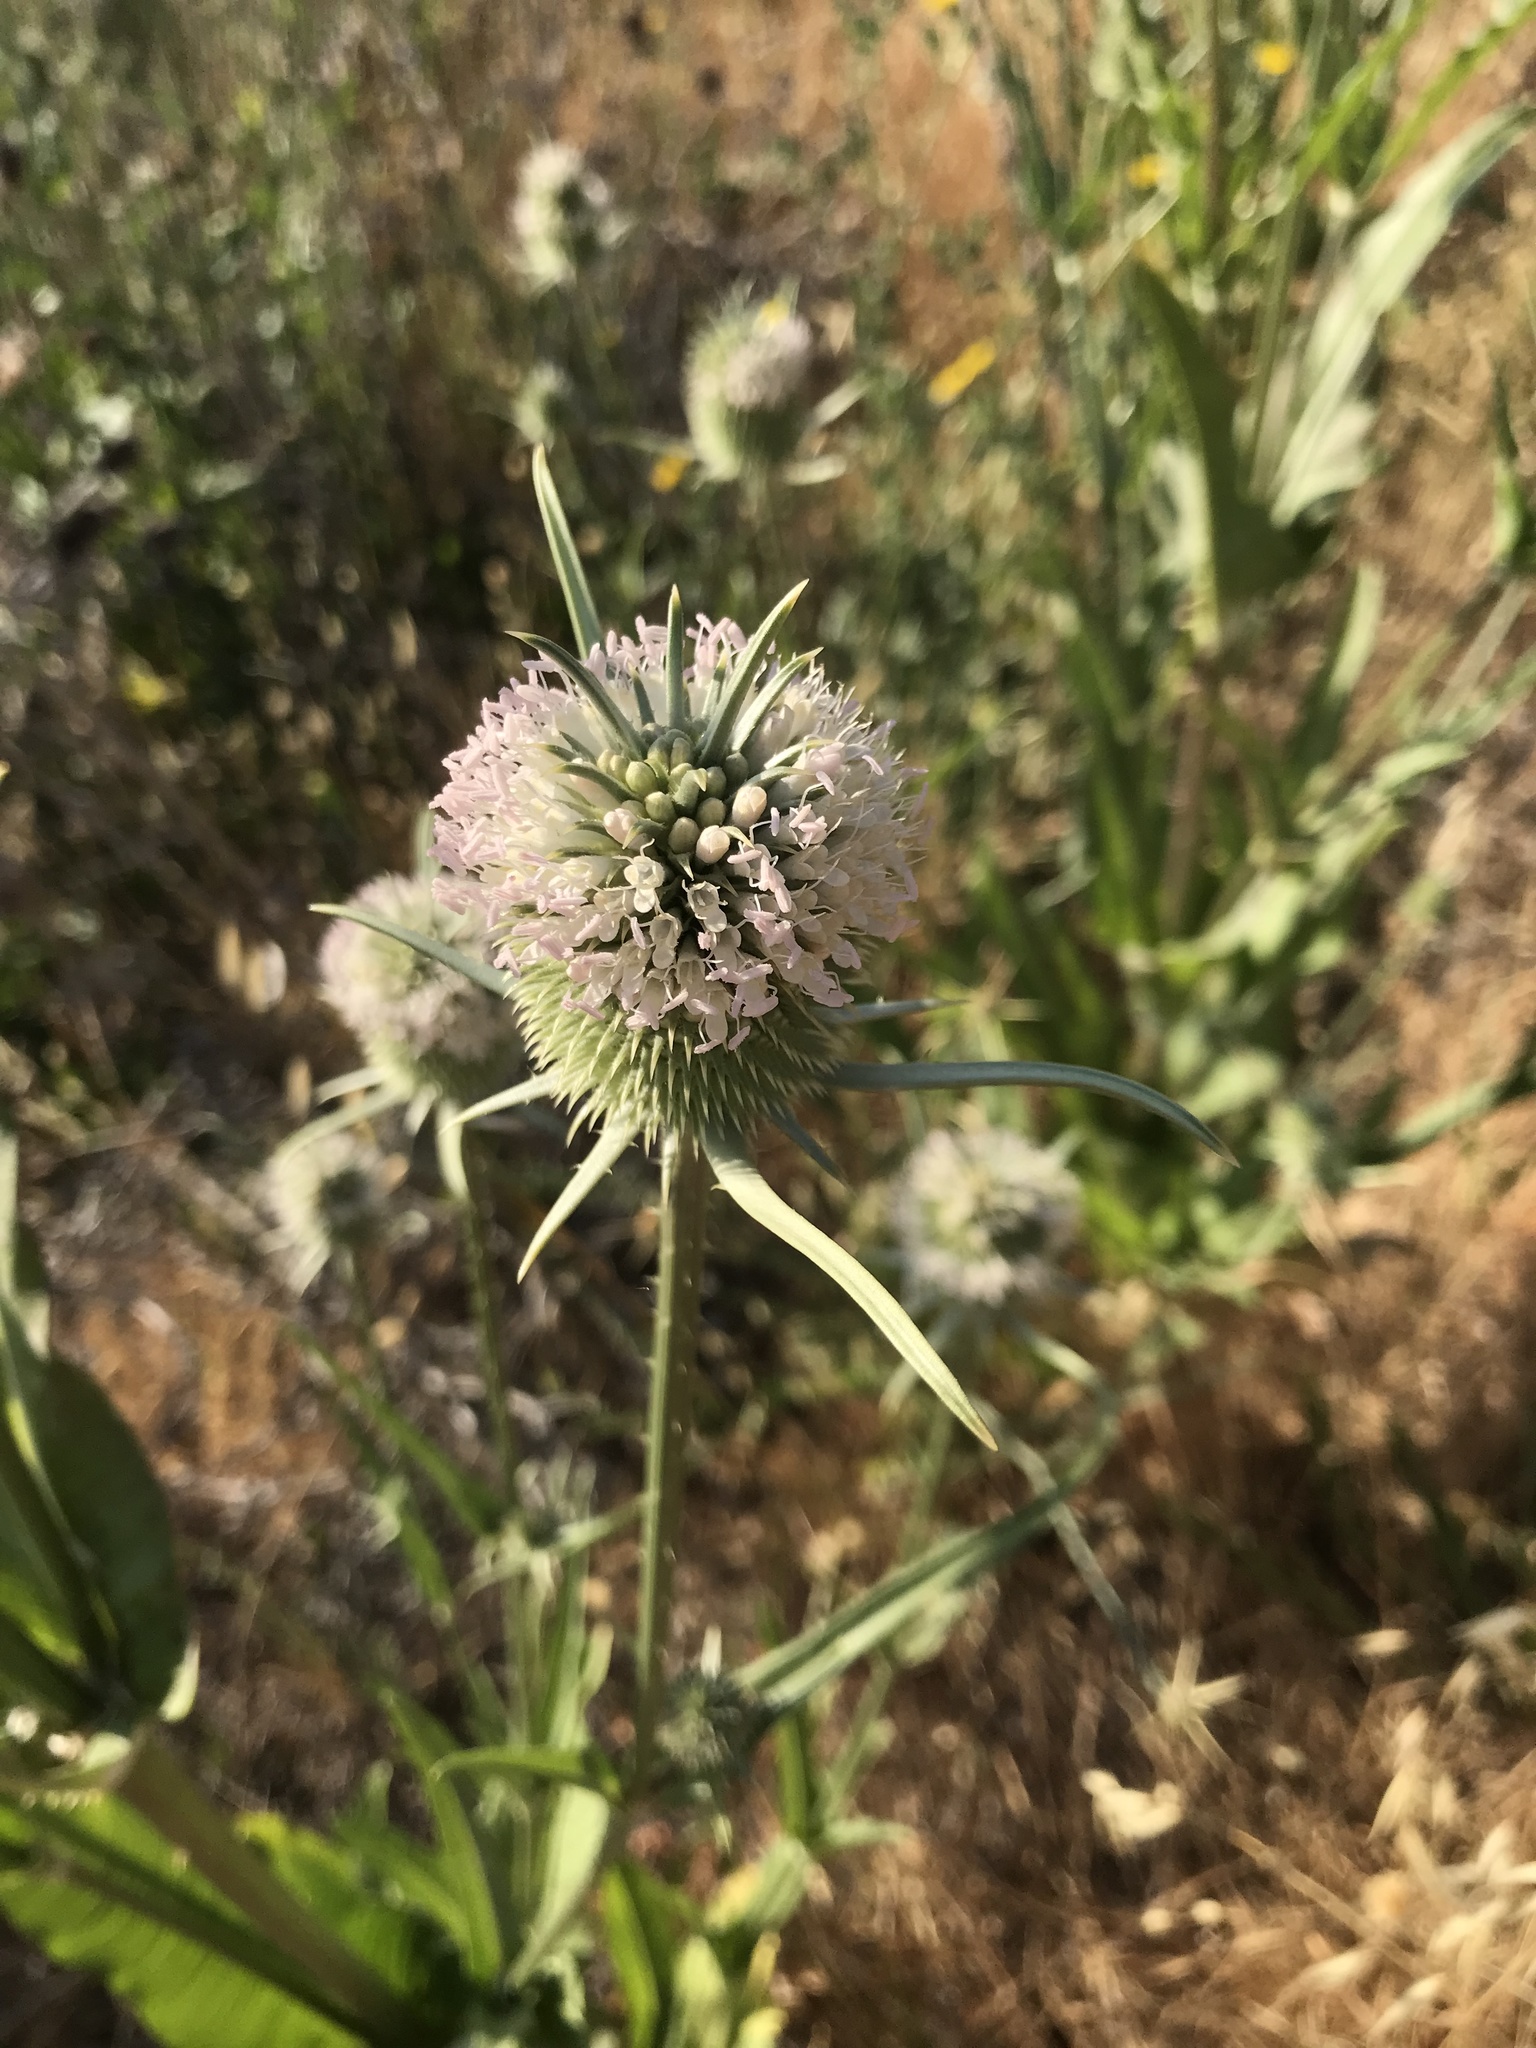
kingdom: Plantae
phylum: Tracheophyta
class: Magnoliopsida
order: Dipsacales
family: Caprifoliaceae
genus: Dipsacus
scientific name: Dipsacus sativus
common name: Fuller's teasel
